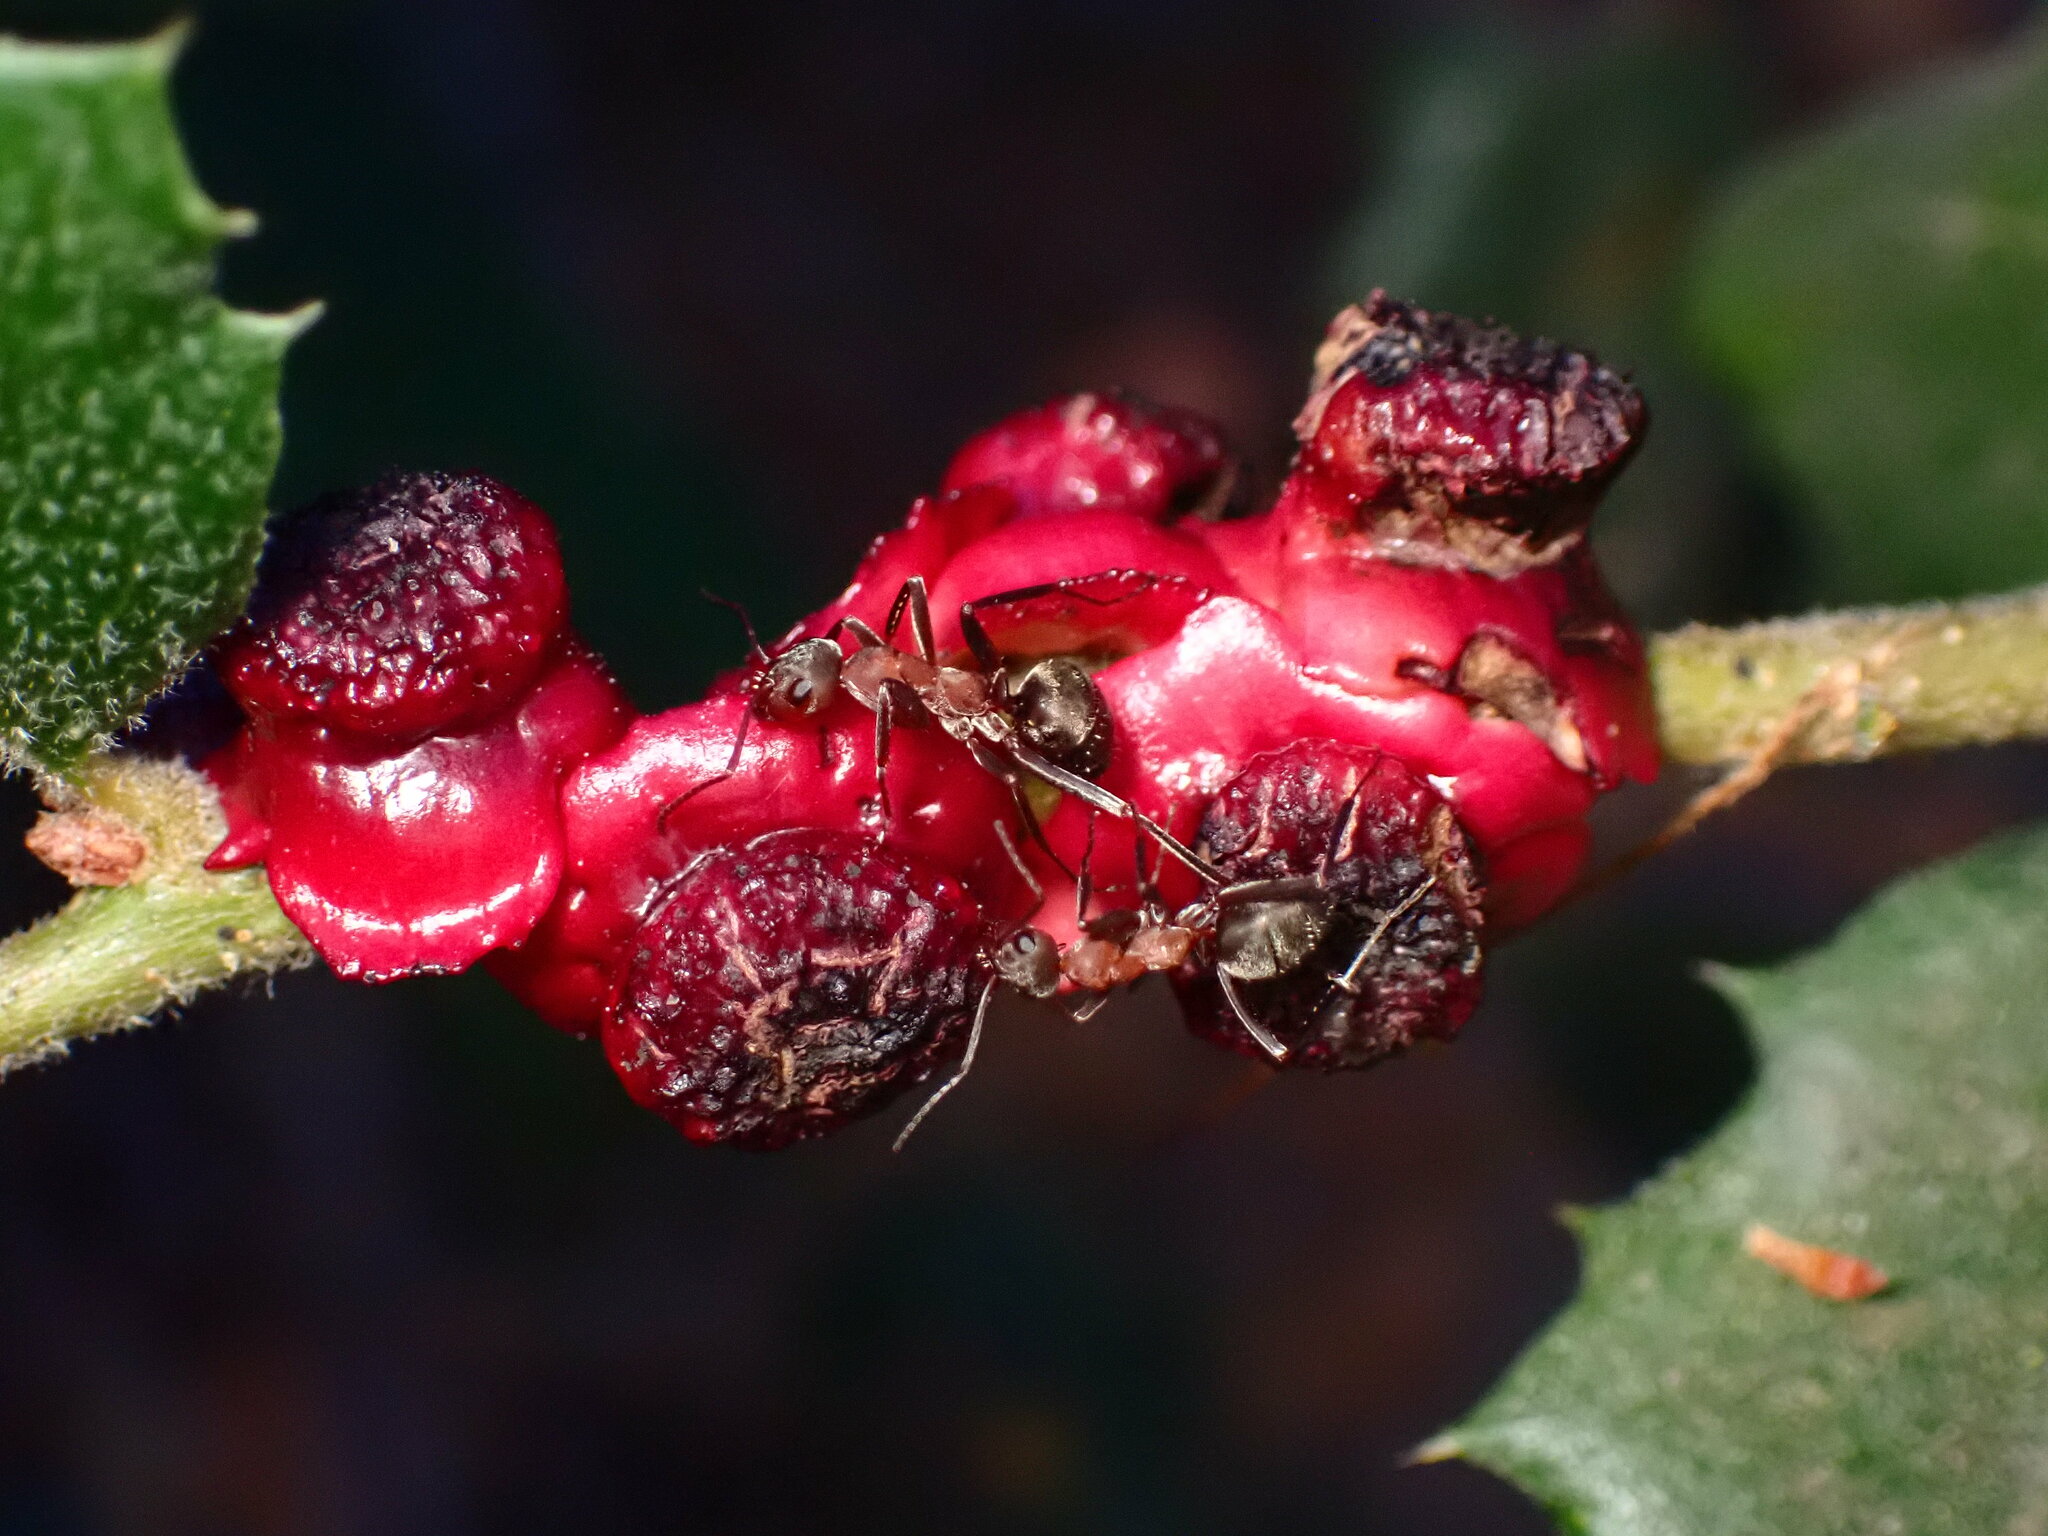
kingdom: Animalia
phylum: Arthropoda
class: Insecta
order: Hymenoptera
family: Cynipidae
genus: Disholcaspis
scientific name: Disholcaspis prehensa
